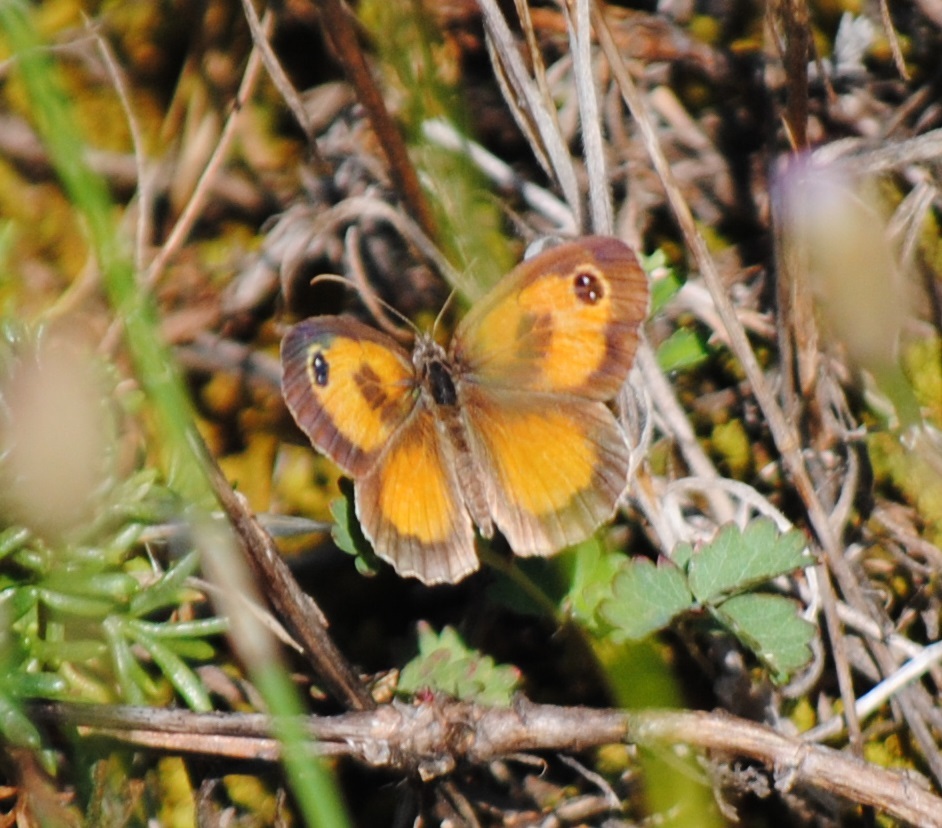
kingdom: Animalia
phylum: Arthropoda
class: Insecta
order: Lepidoptera
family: Nymphalidae
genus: Pyronia
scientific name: Pyronia cecilia
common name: Southern gatekeeper
